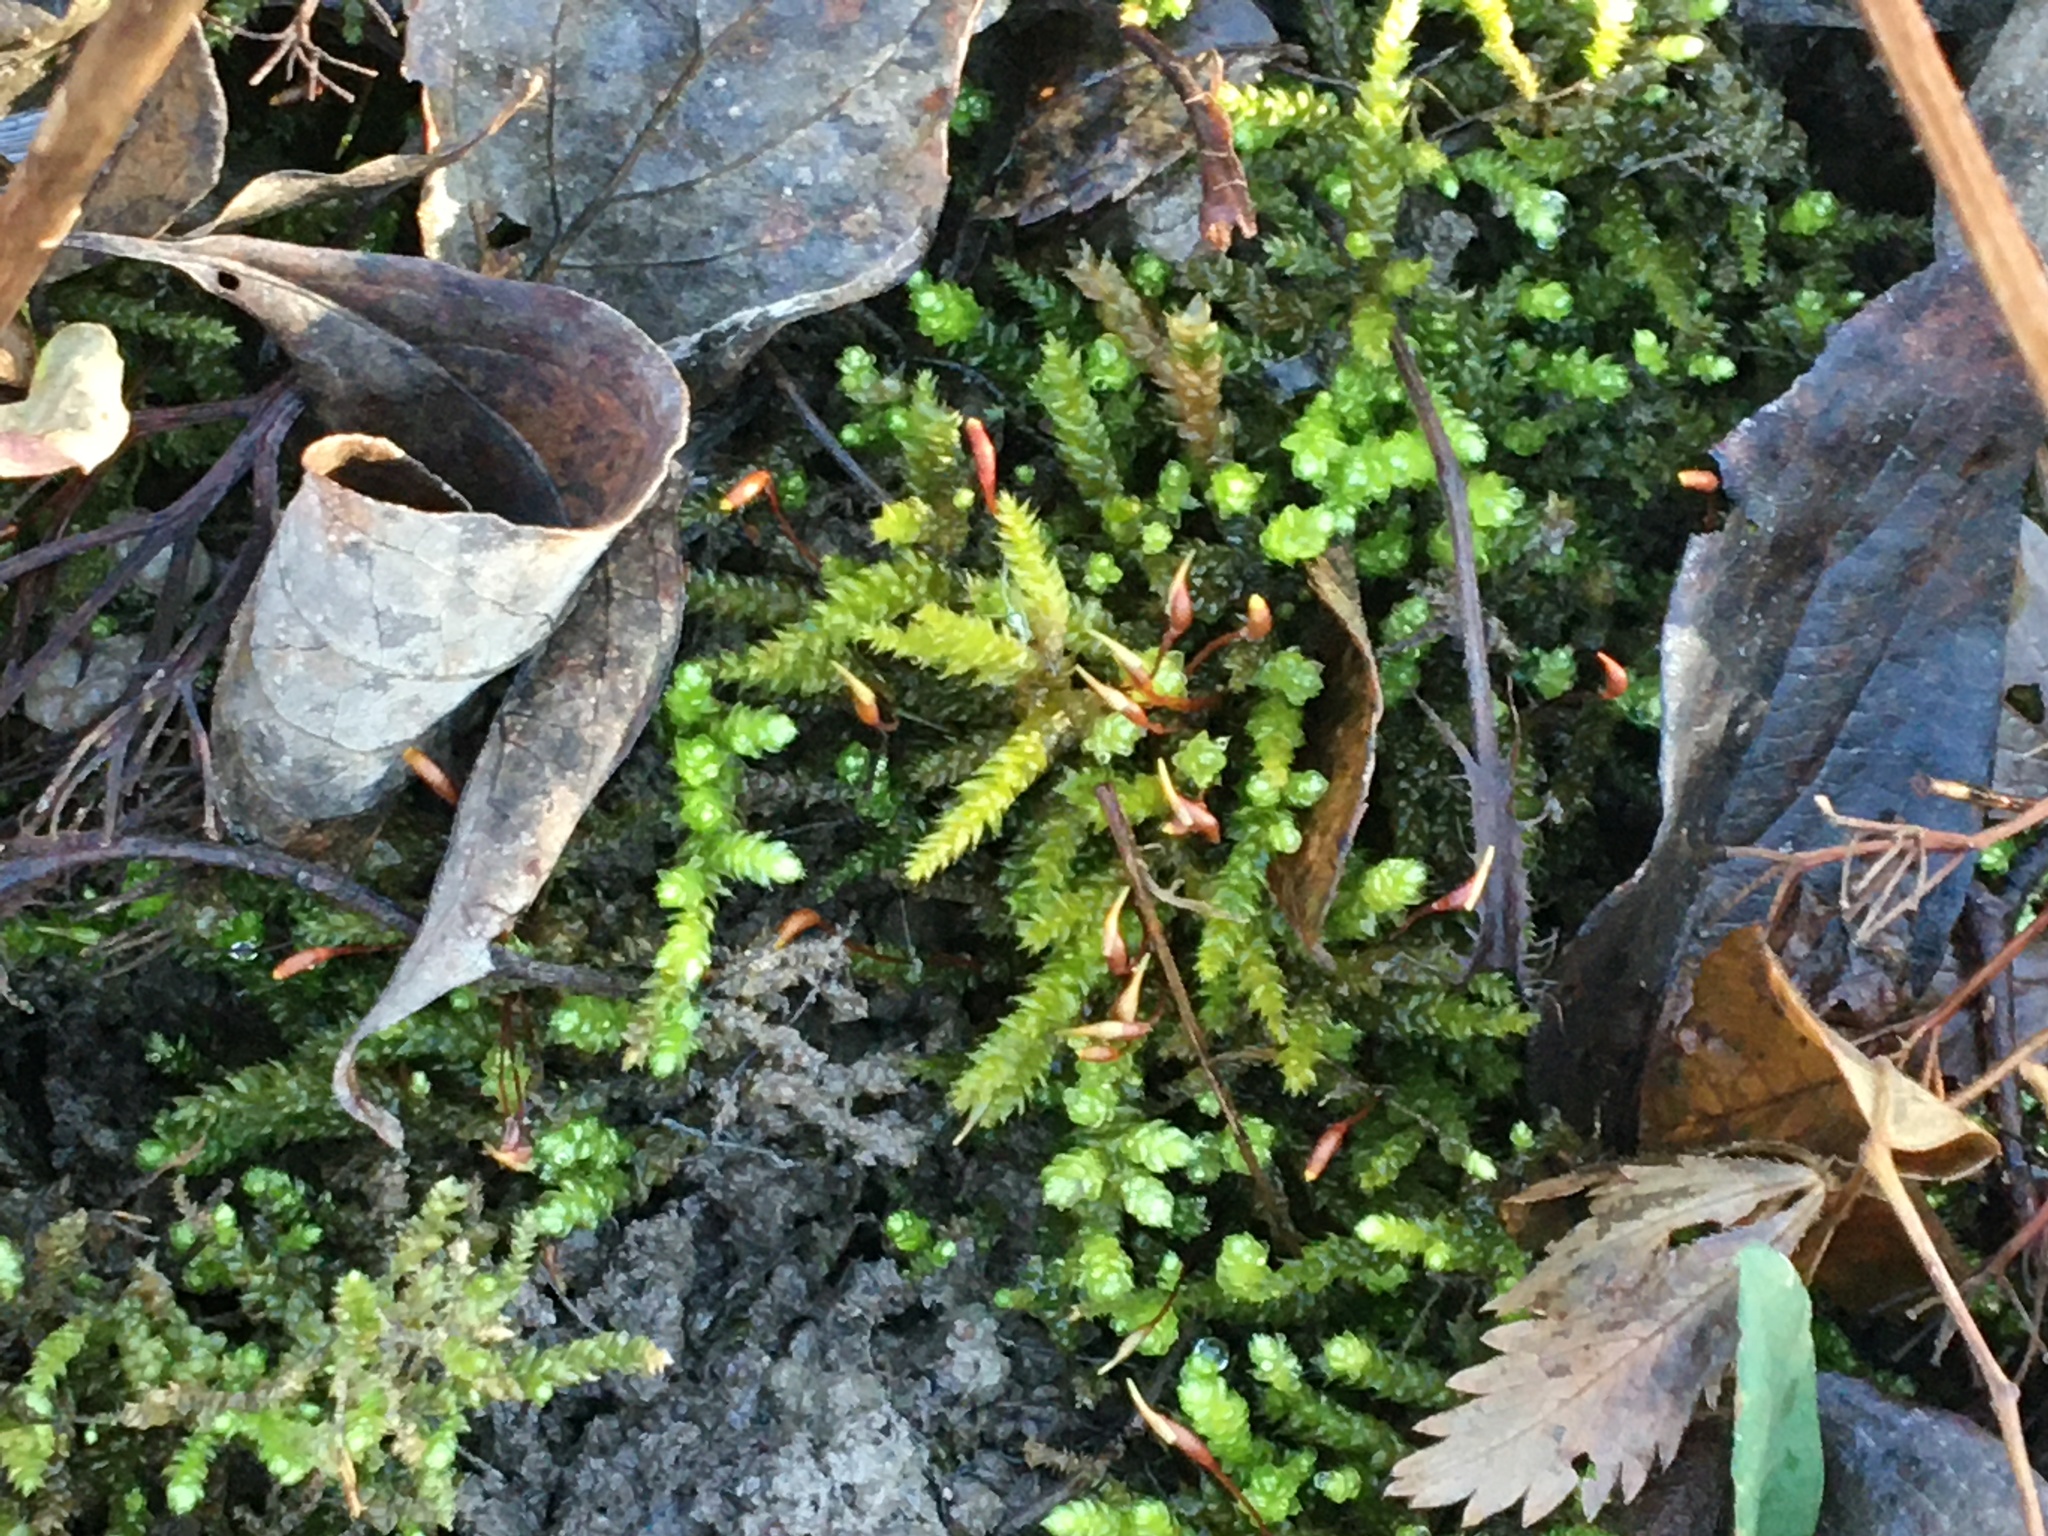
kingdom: Plantae
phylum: Bryophyta
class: Bryopsida
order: Hypnales
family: Brachytheciaceae
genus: Bryoandersonia
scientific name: Bryoandersonia illecebra
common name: Spoon-leaved moss
